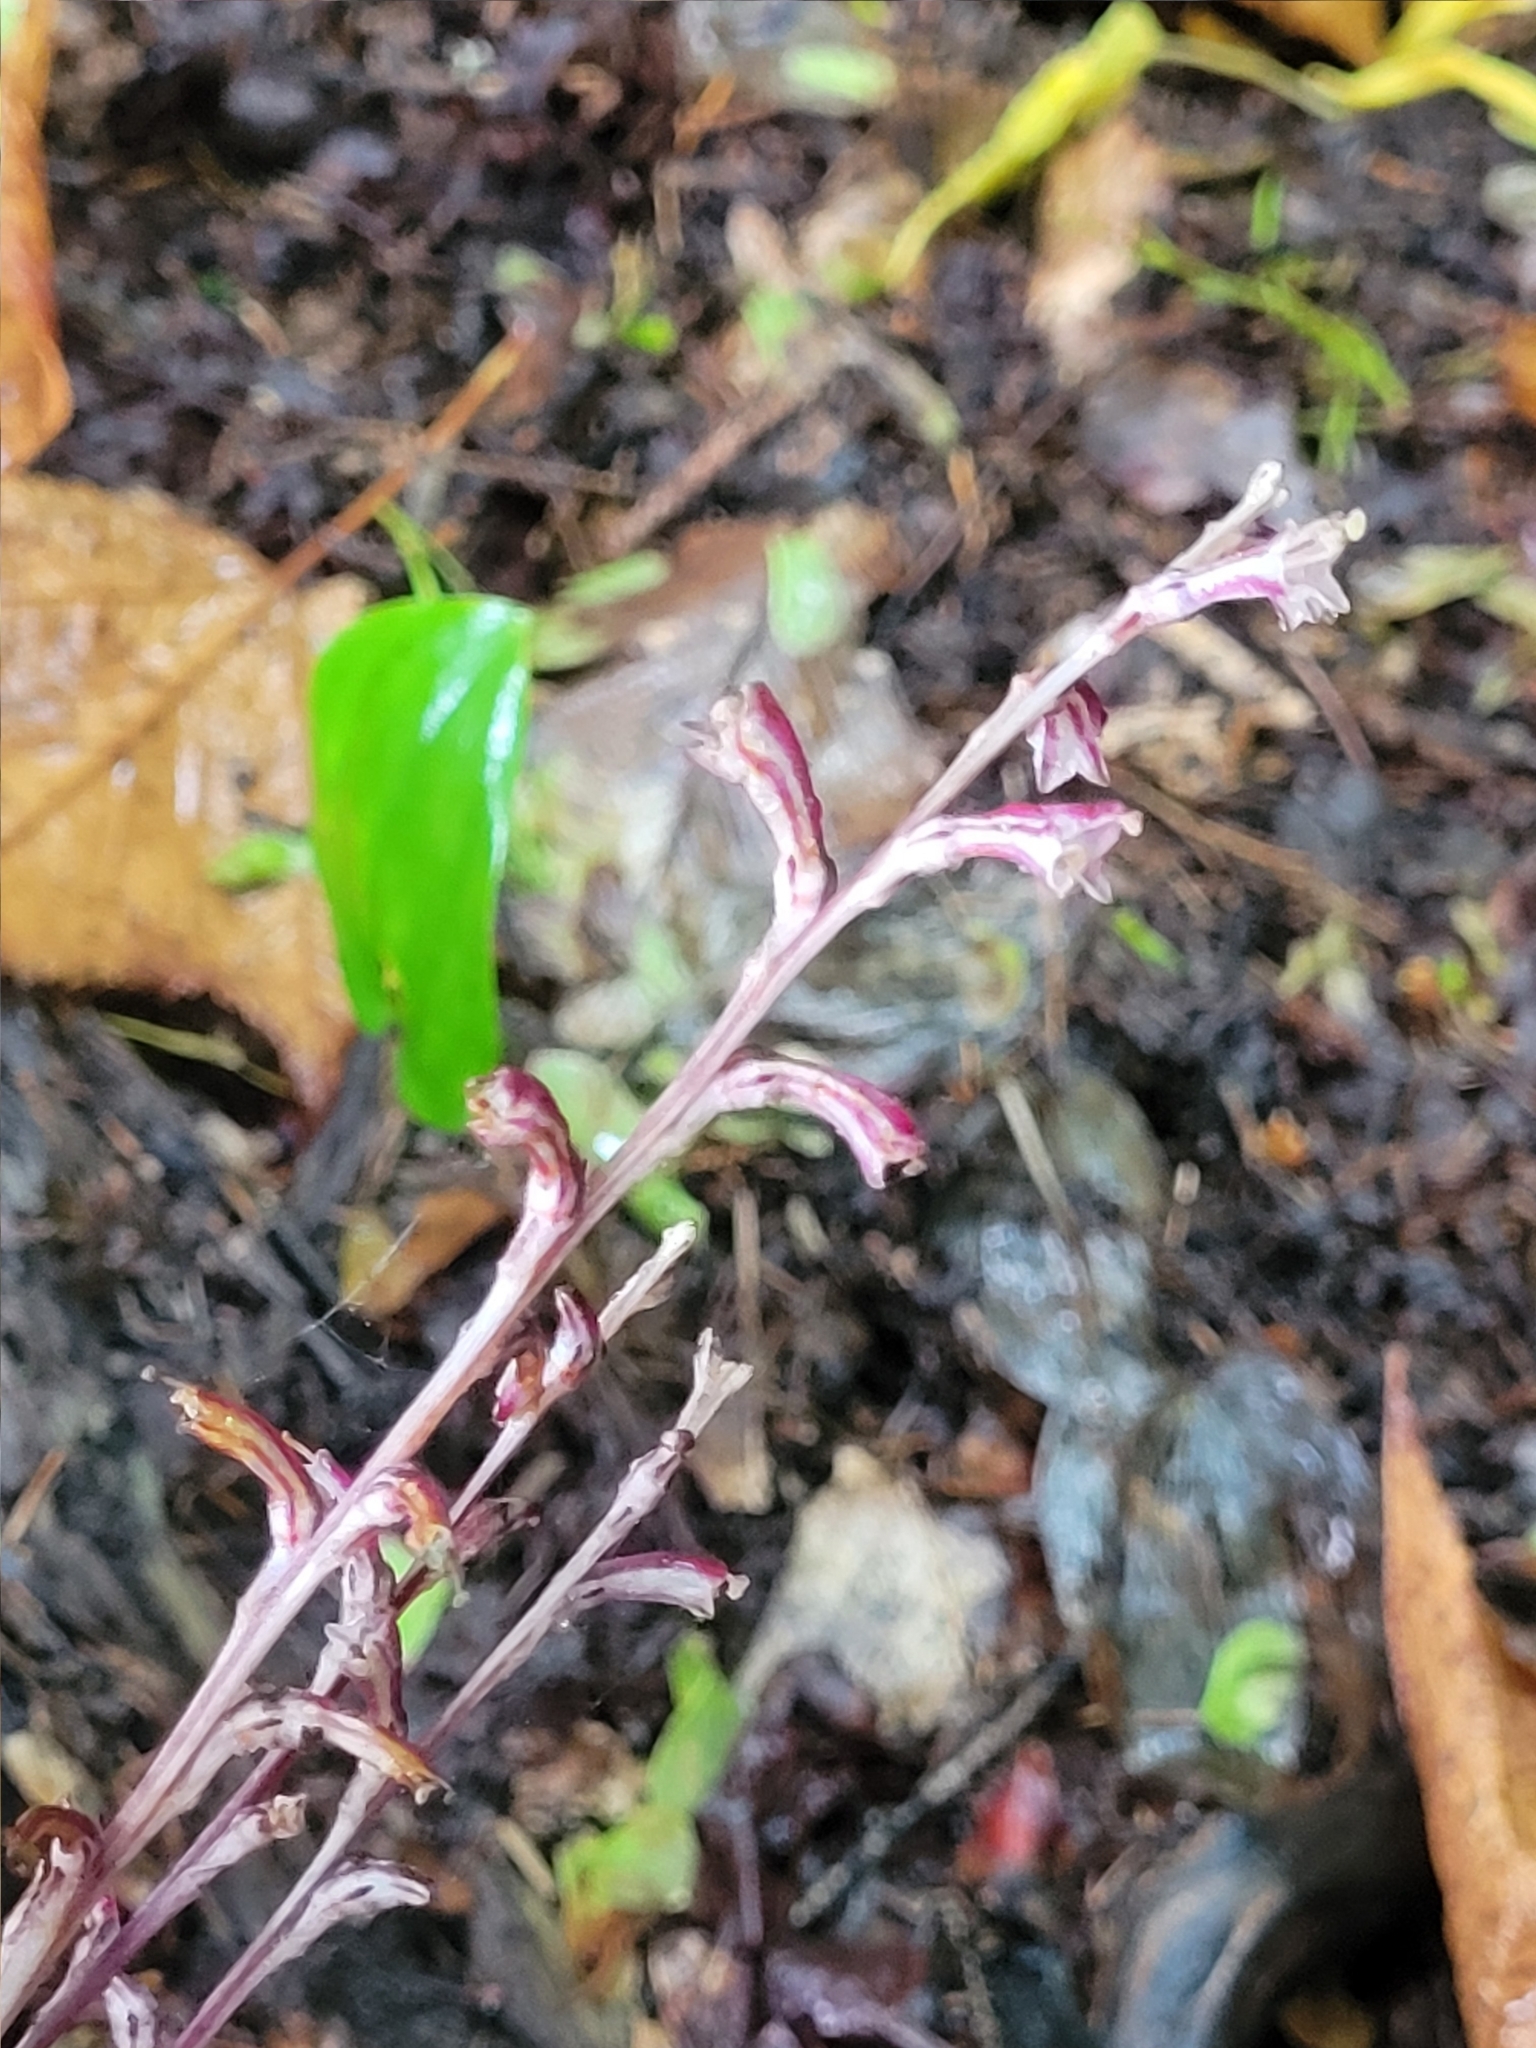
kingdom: Plantae
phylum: Tracheophyta
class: Magnoliopsida
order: Lamiales
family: Orobanchaceae
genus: Epifagus
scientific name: Epifagus virginiana
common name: Beechdrops
